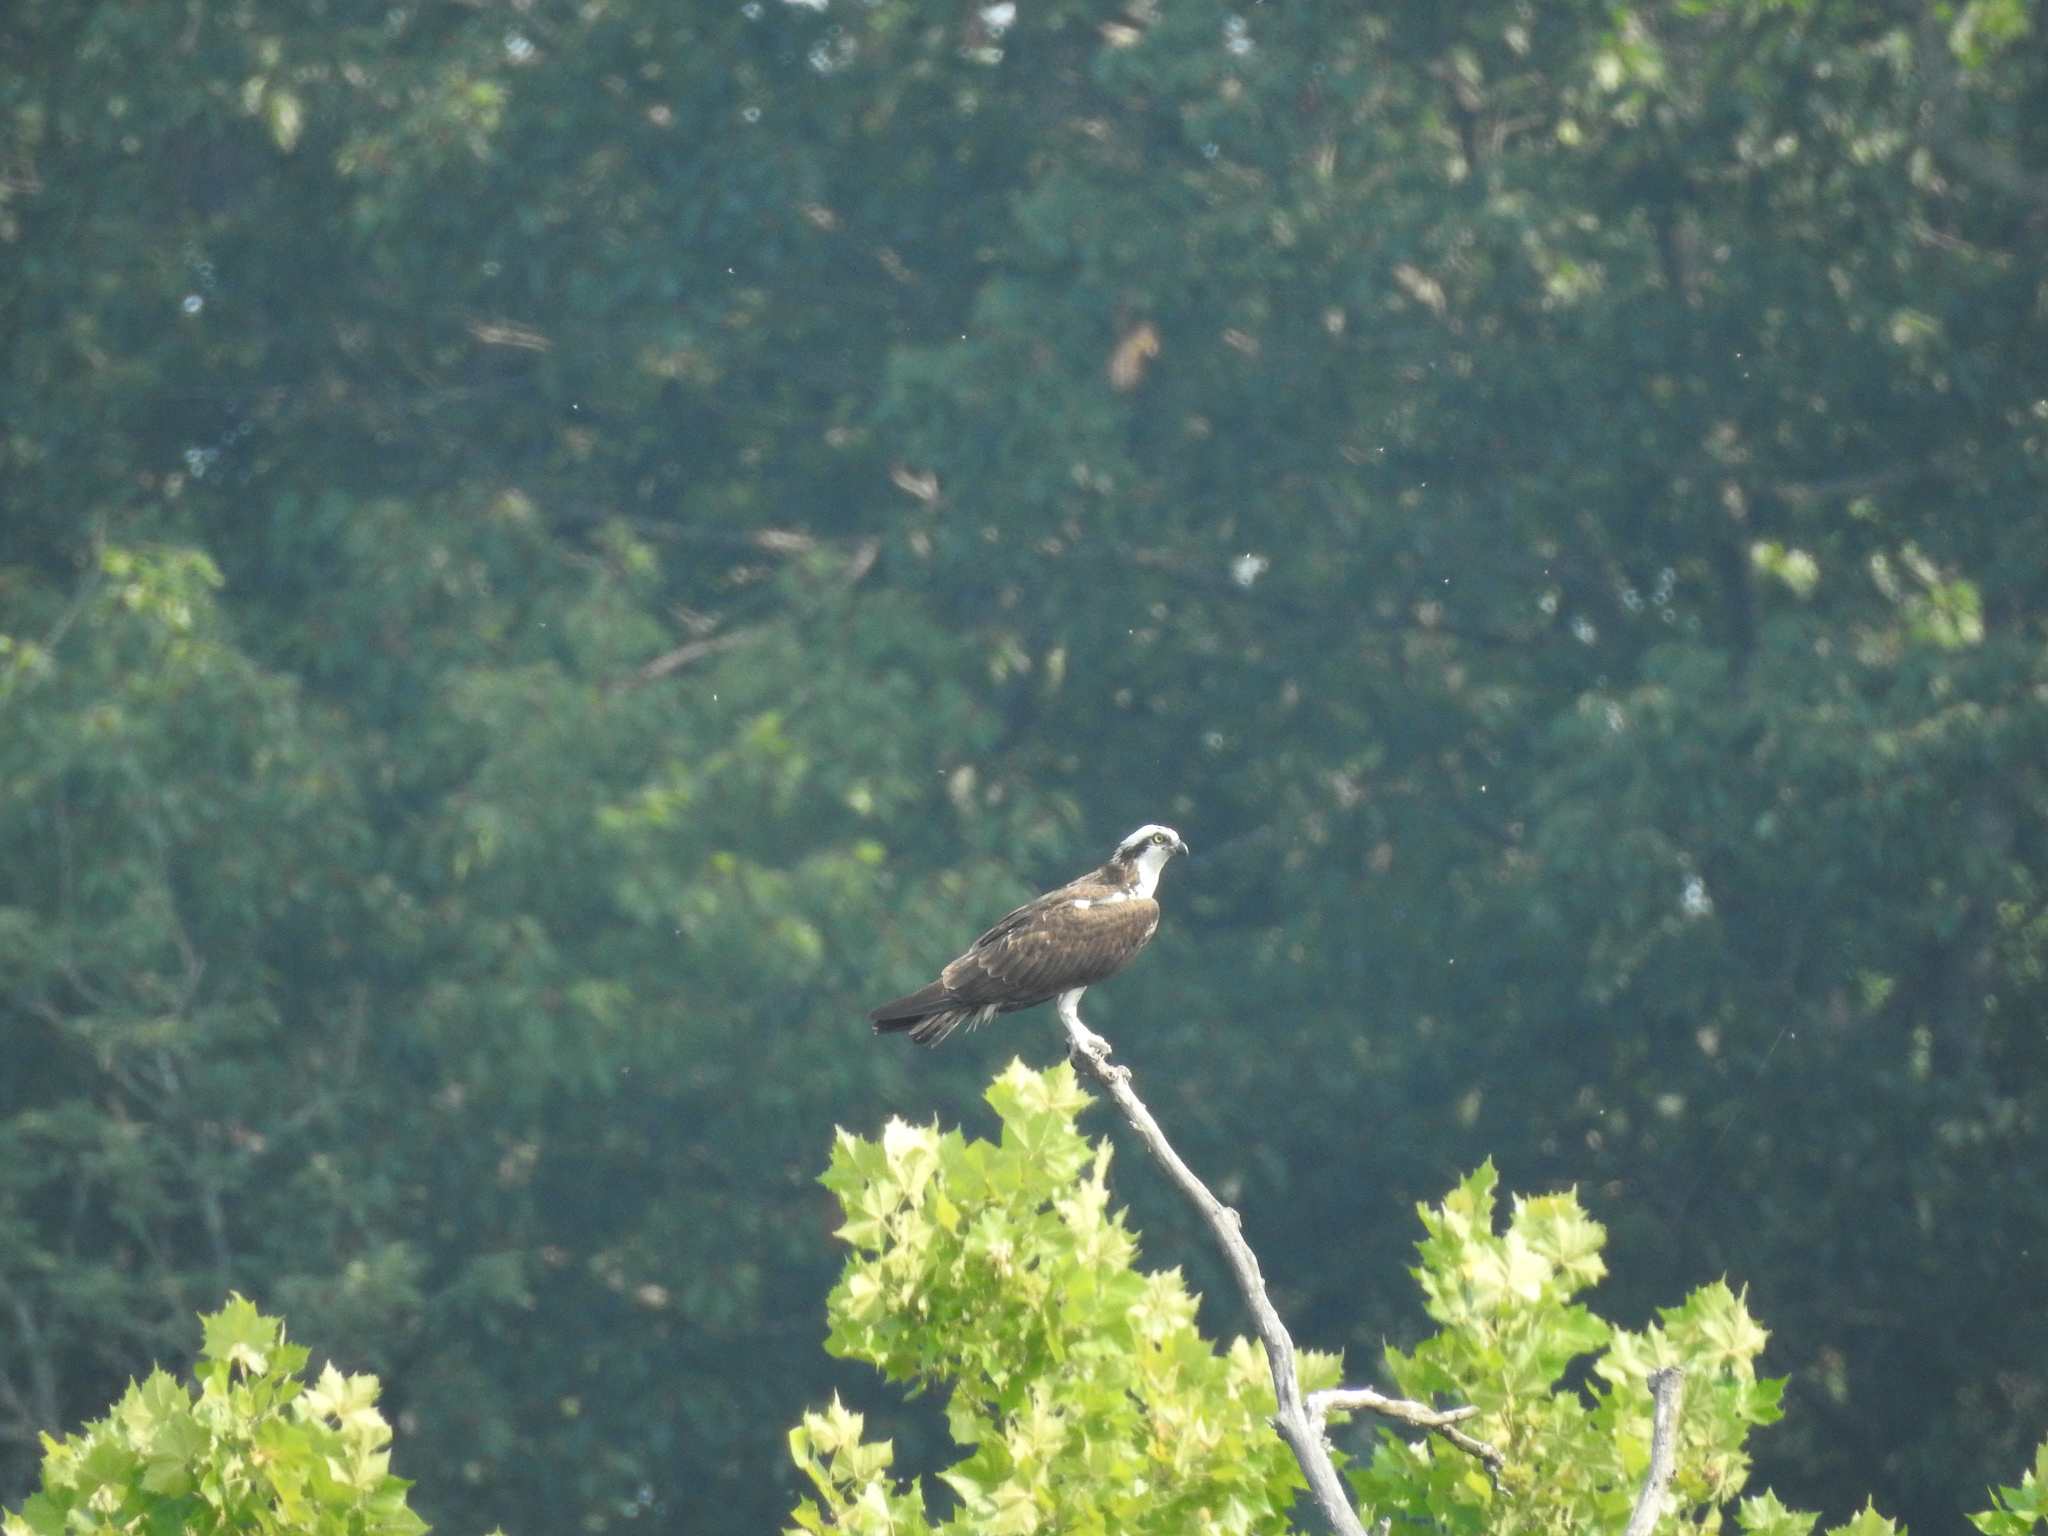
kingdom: Animalia
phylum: Chordata
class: Aves
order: Accipitriformes
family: Pandionidae
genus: Pandion
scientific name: Pandion haliaetus
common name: Osprey
